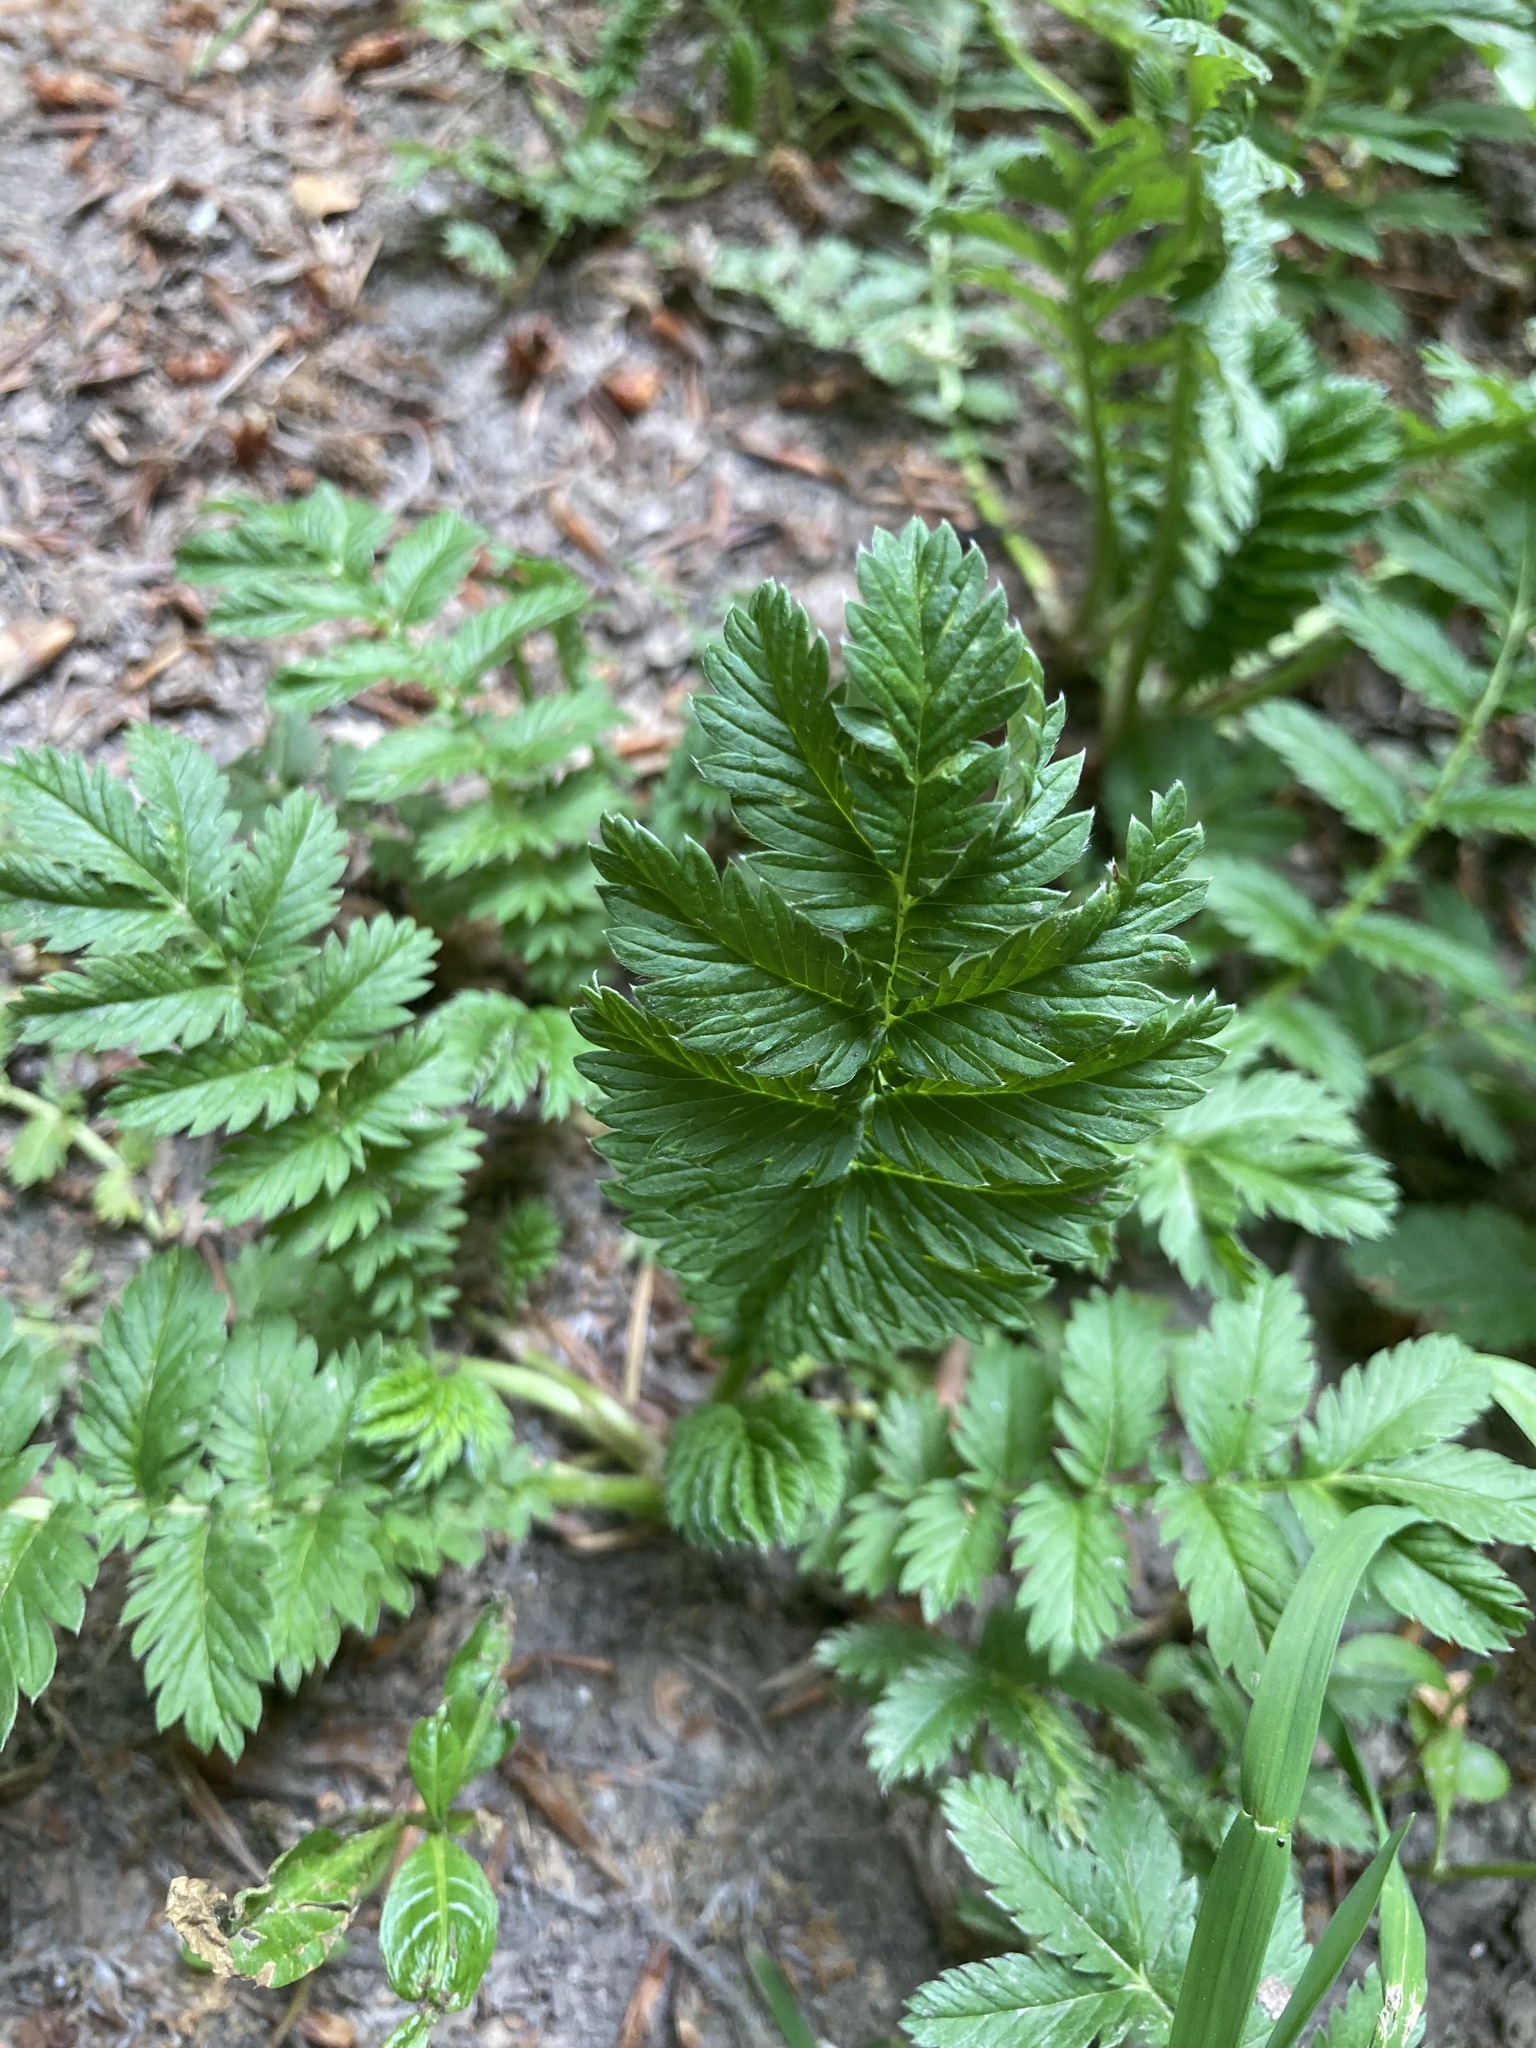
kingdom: Plantae
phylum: Tracheophyta
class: Magnoliopsida
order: Rosales
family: Rosaceae
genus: Argentina
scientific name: Argentina anserina
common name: Common silverweed
